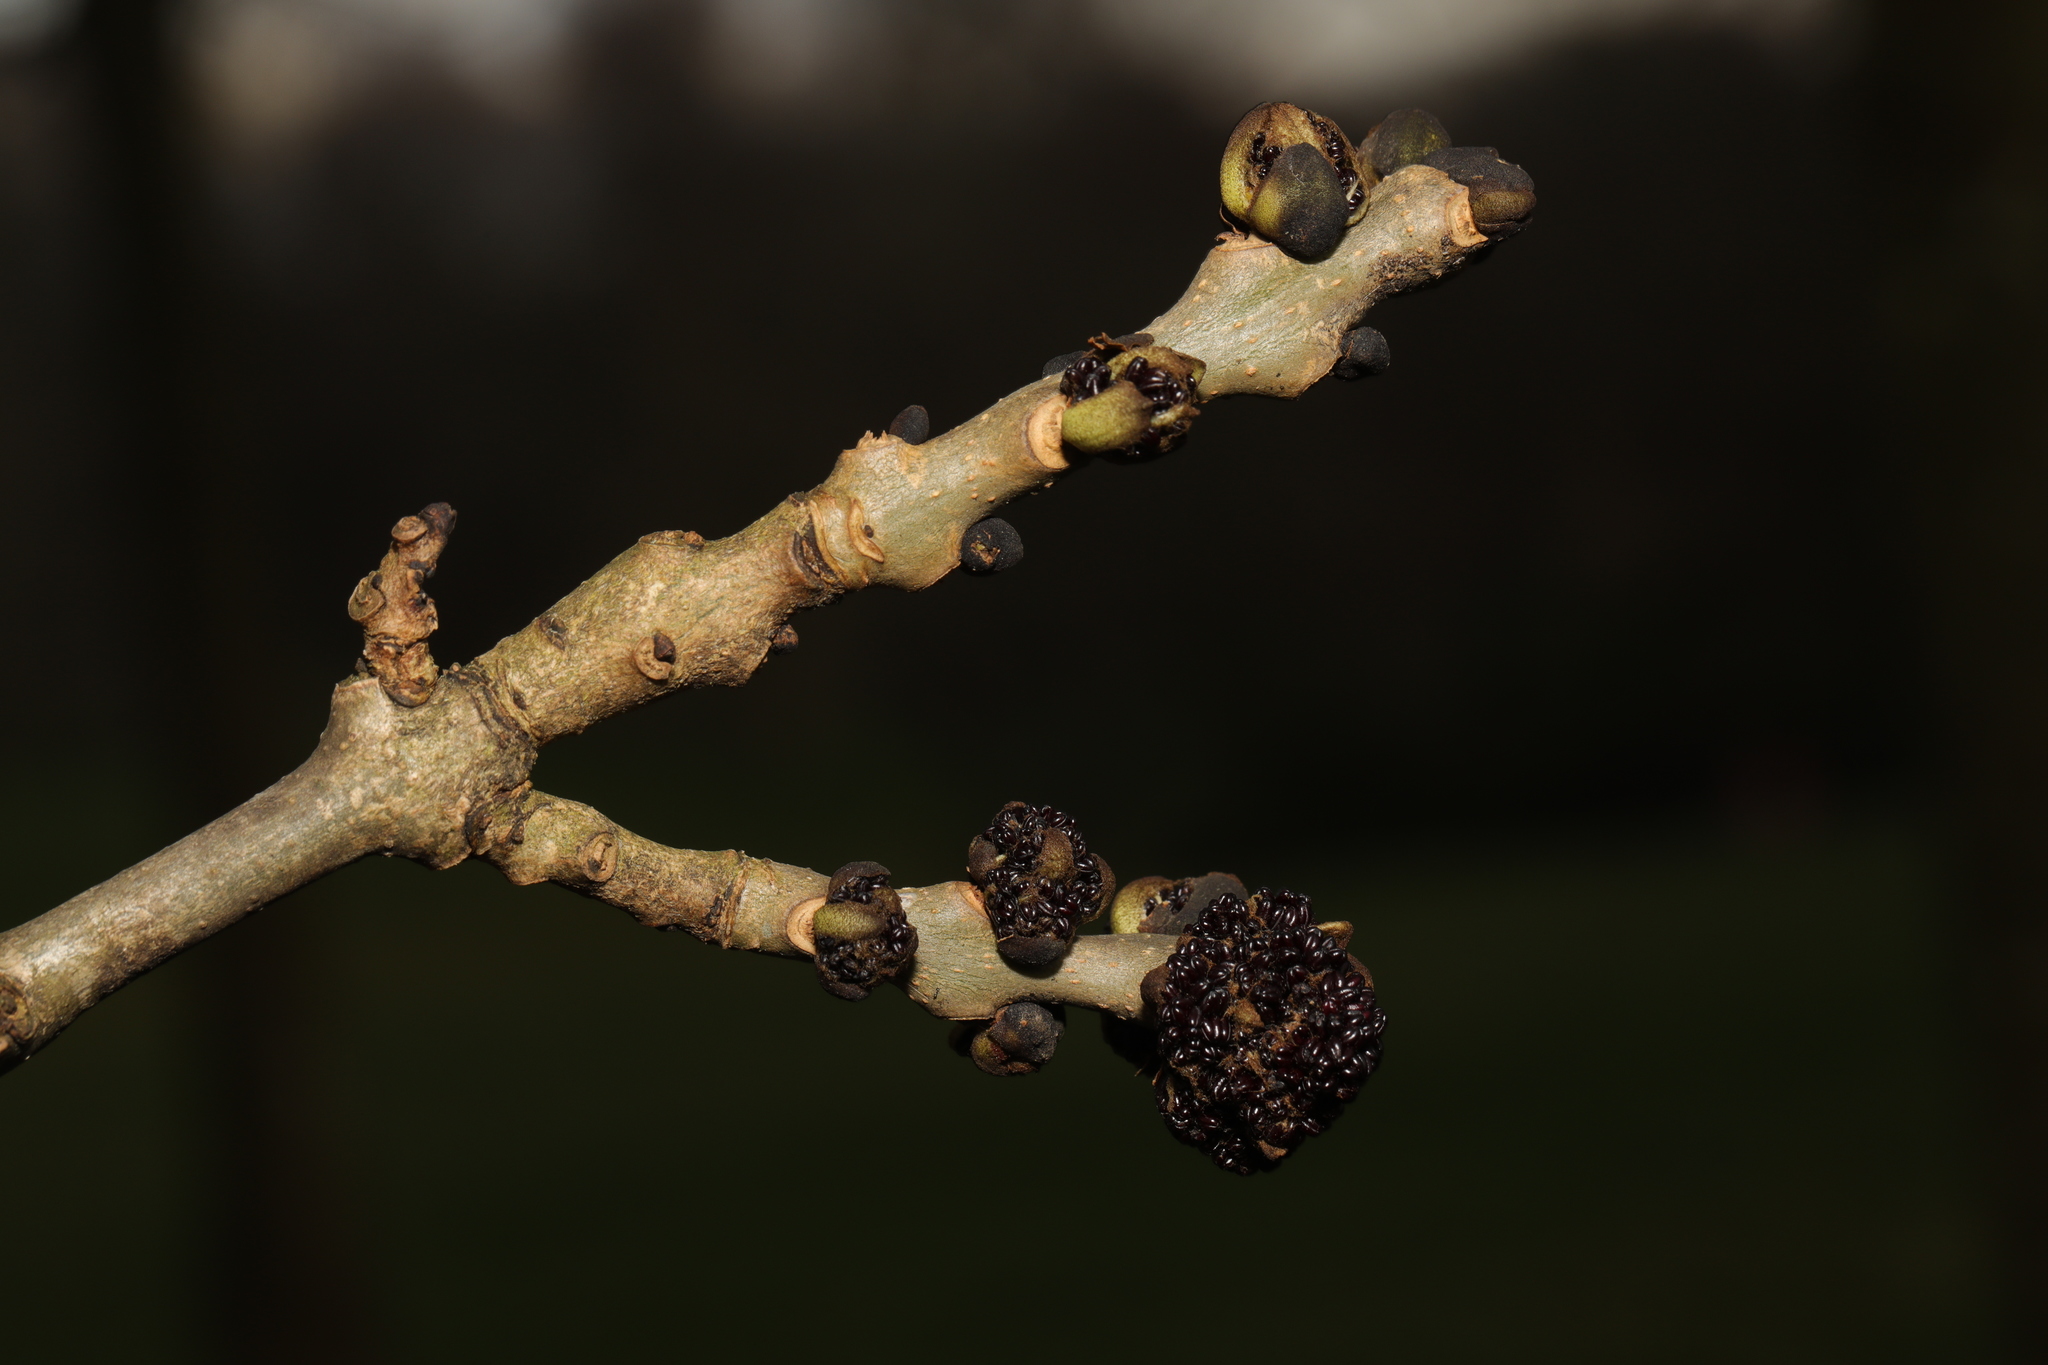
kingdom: Plantae
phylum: Tracheophyta
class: Magnoliopsida
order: Lamiales
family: Oleaceae
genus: Fraxinus
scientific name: Fraxinus excelsior
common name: European ash
